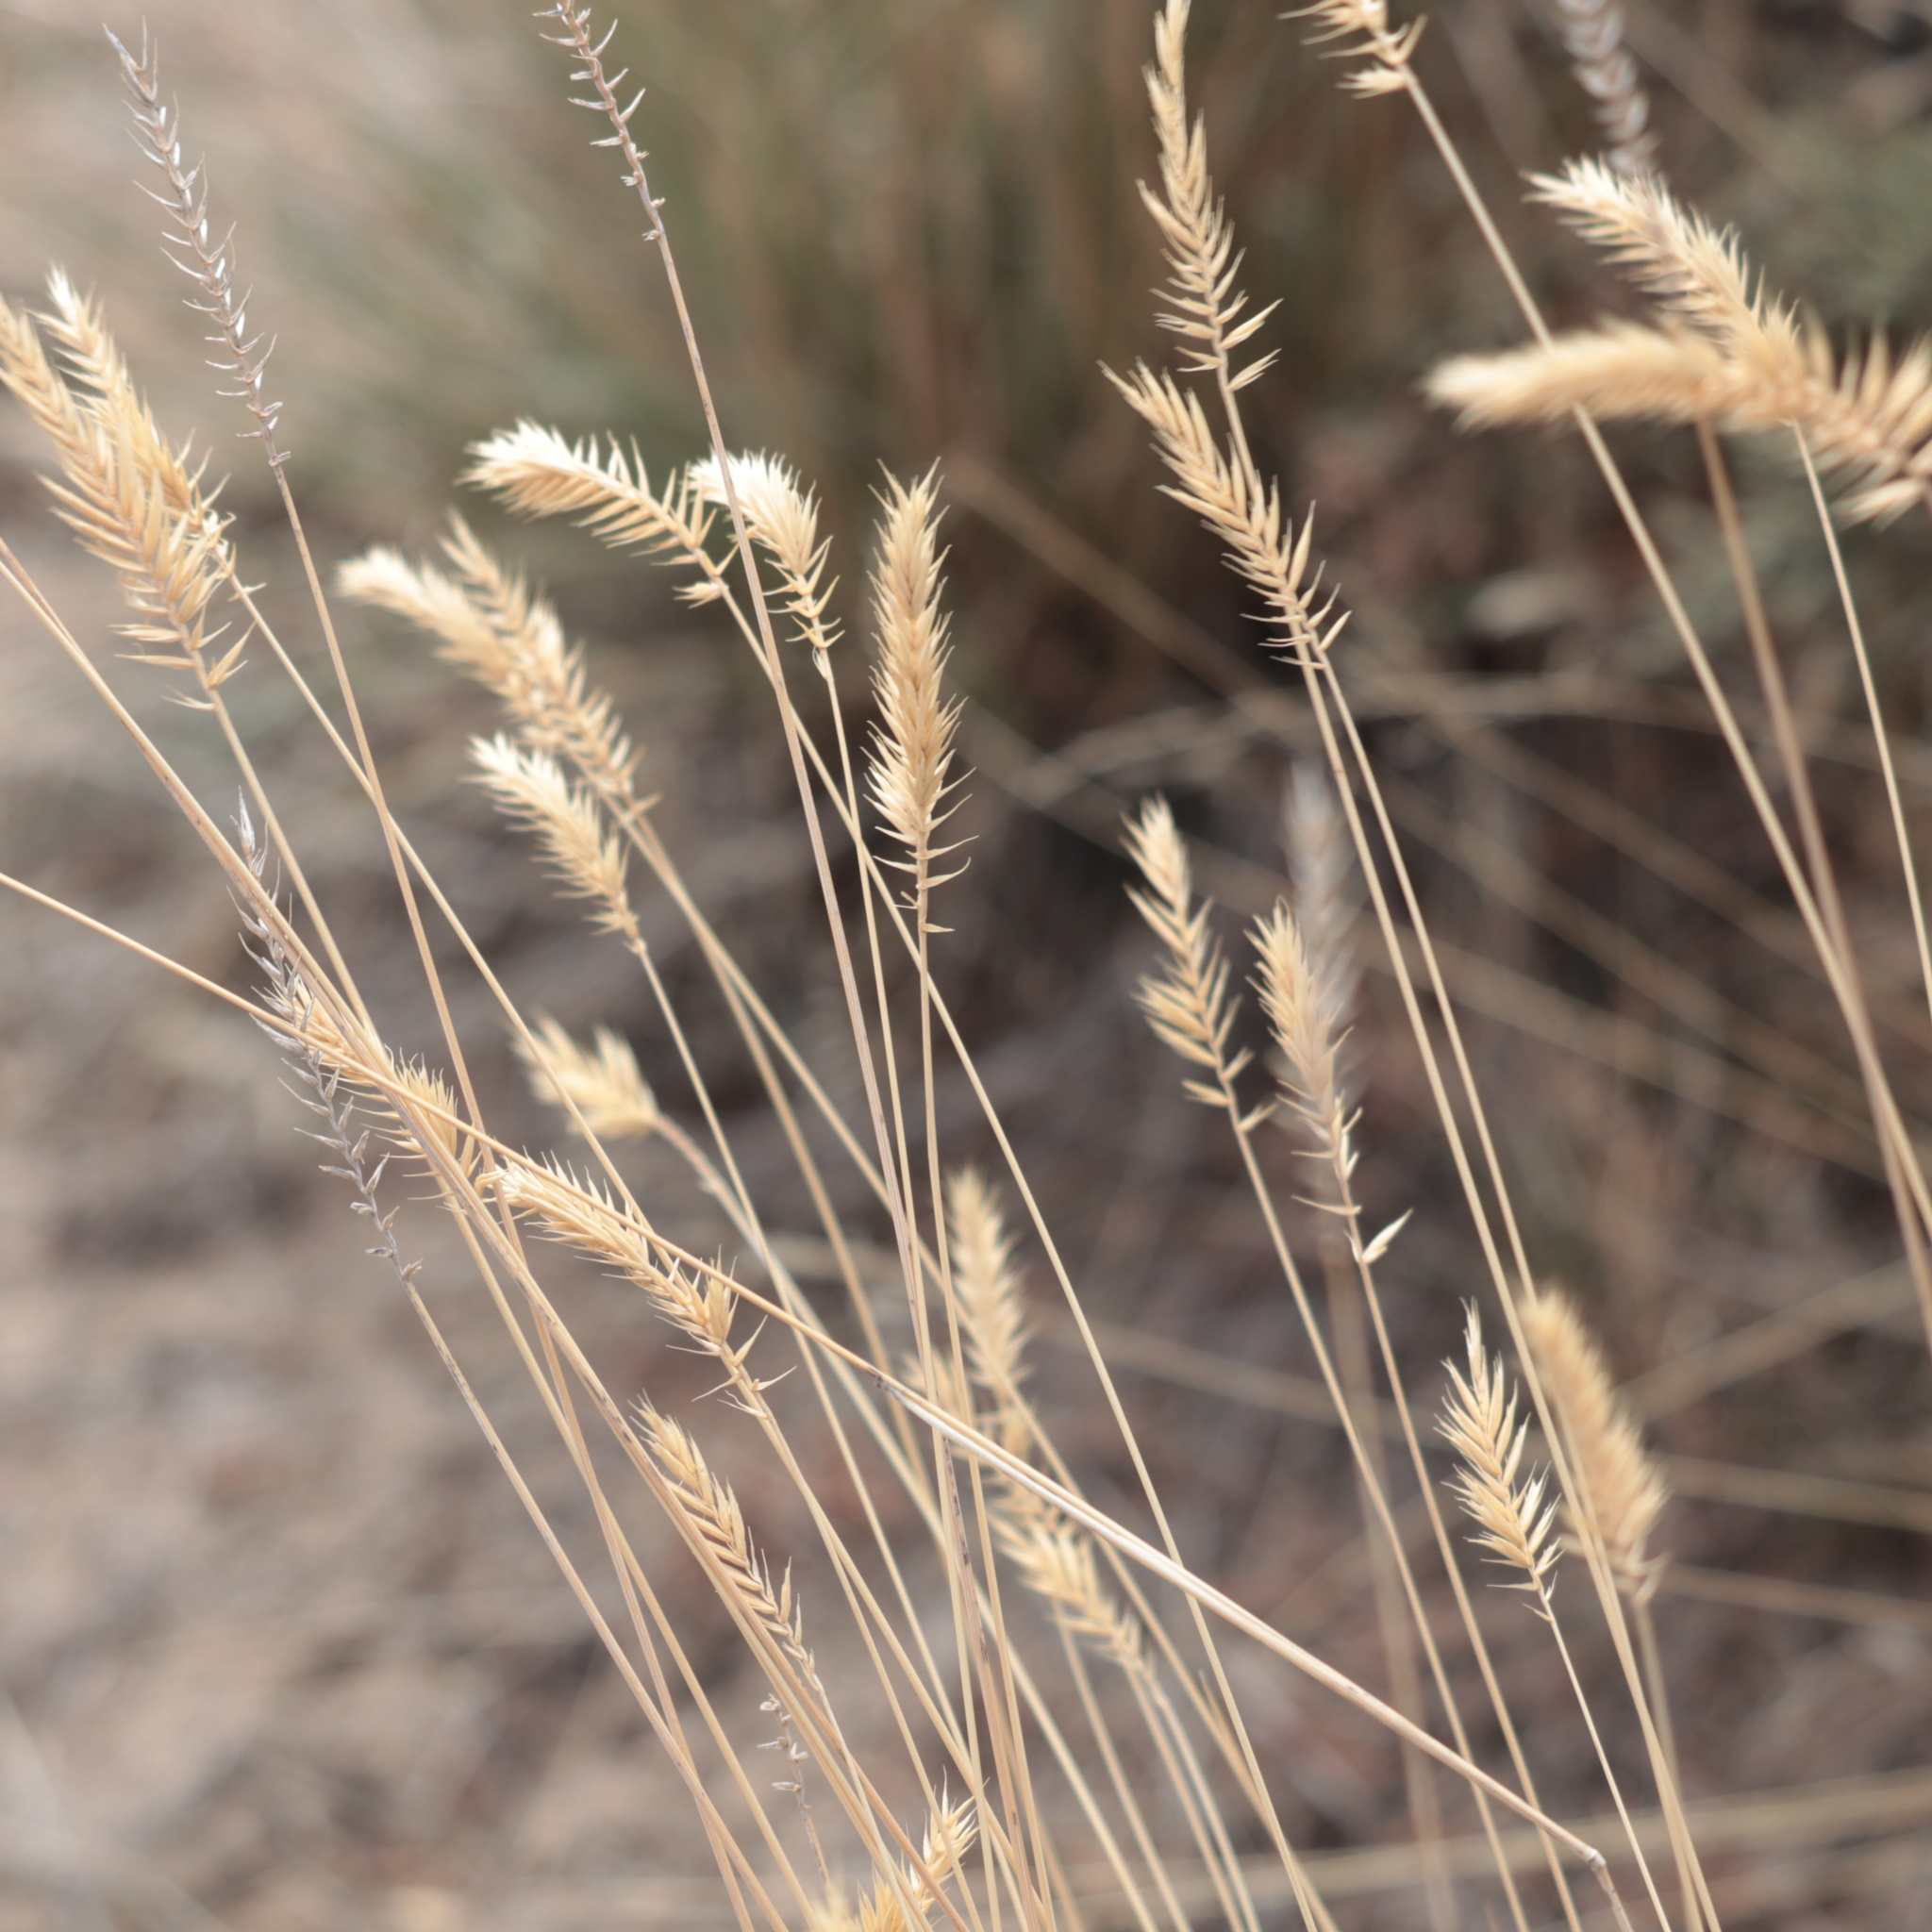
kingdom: Plantae
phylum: Tracheophyta
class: Liliopsida
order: Poales
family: Poaceae
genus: Agropyron
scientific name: Agropyron cristatum
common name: Crested wheatgrass
